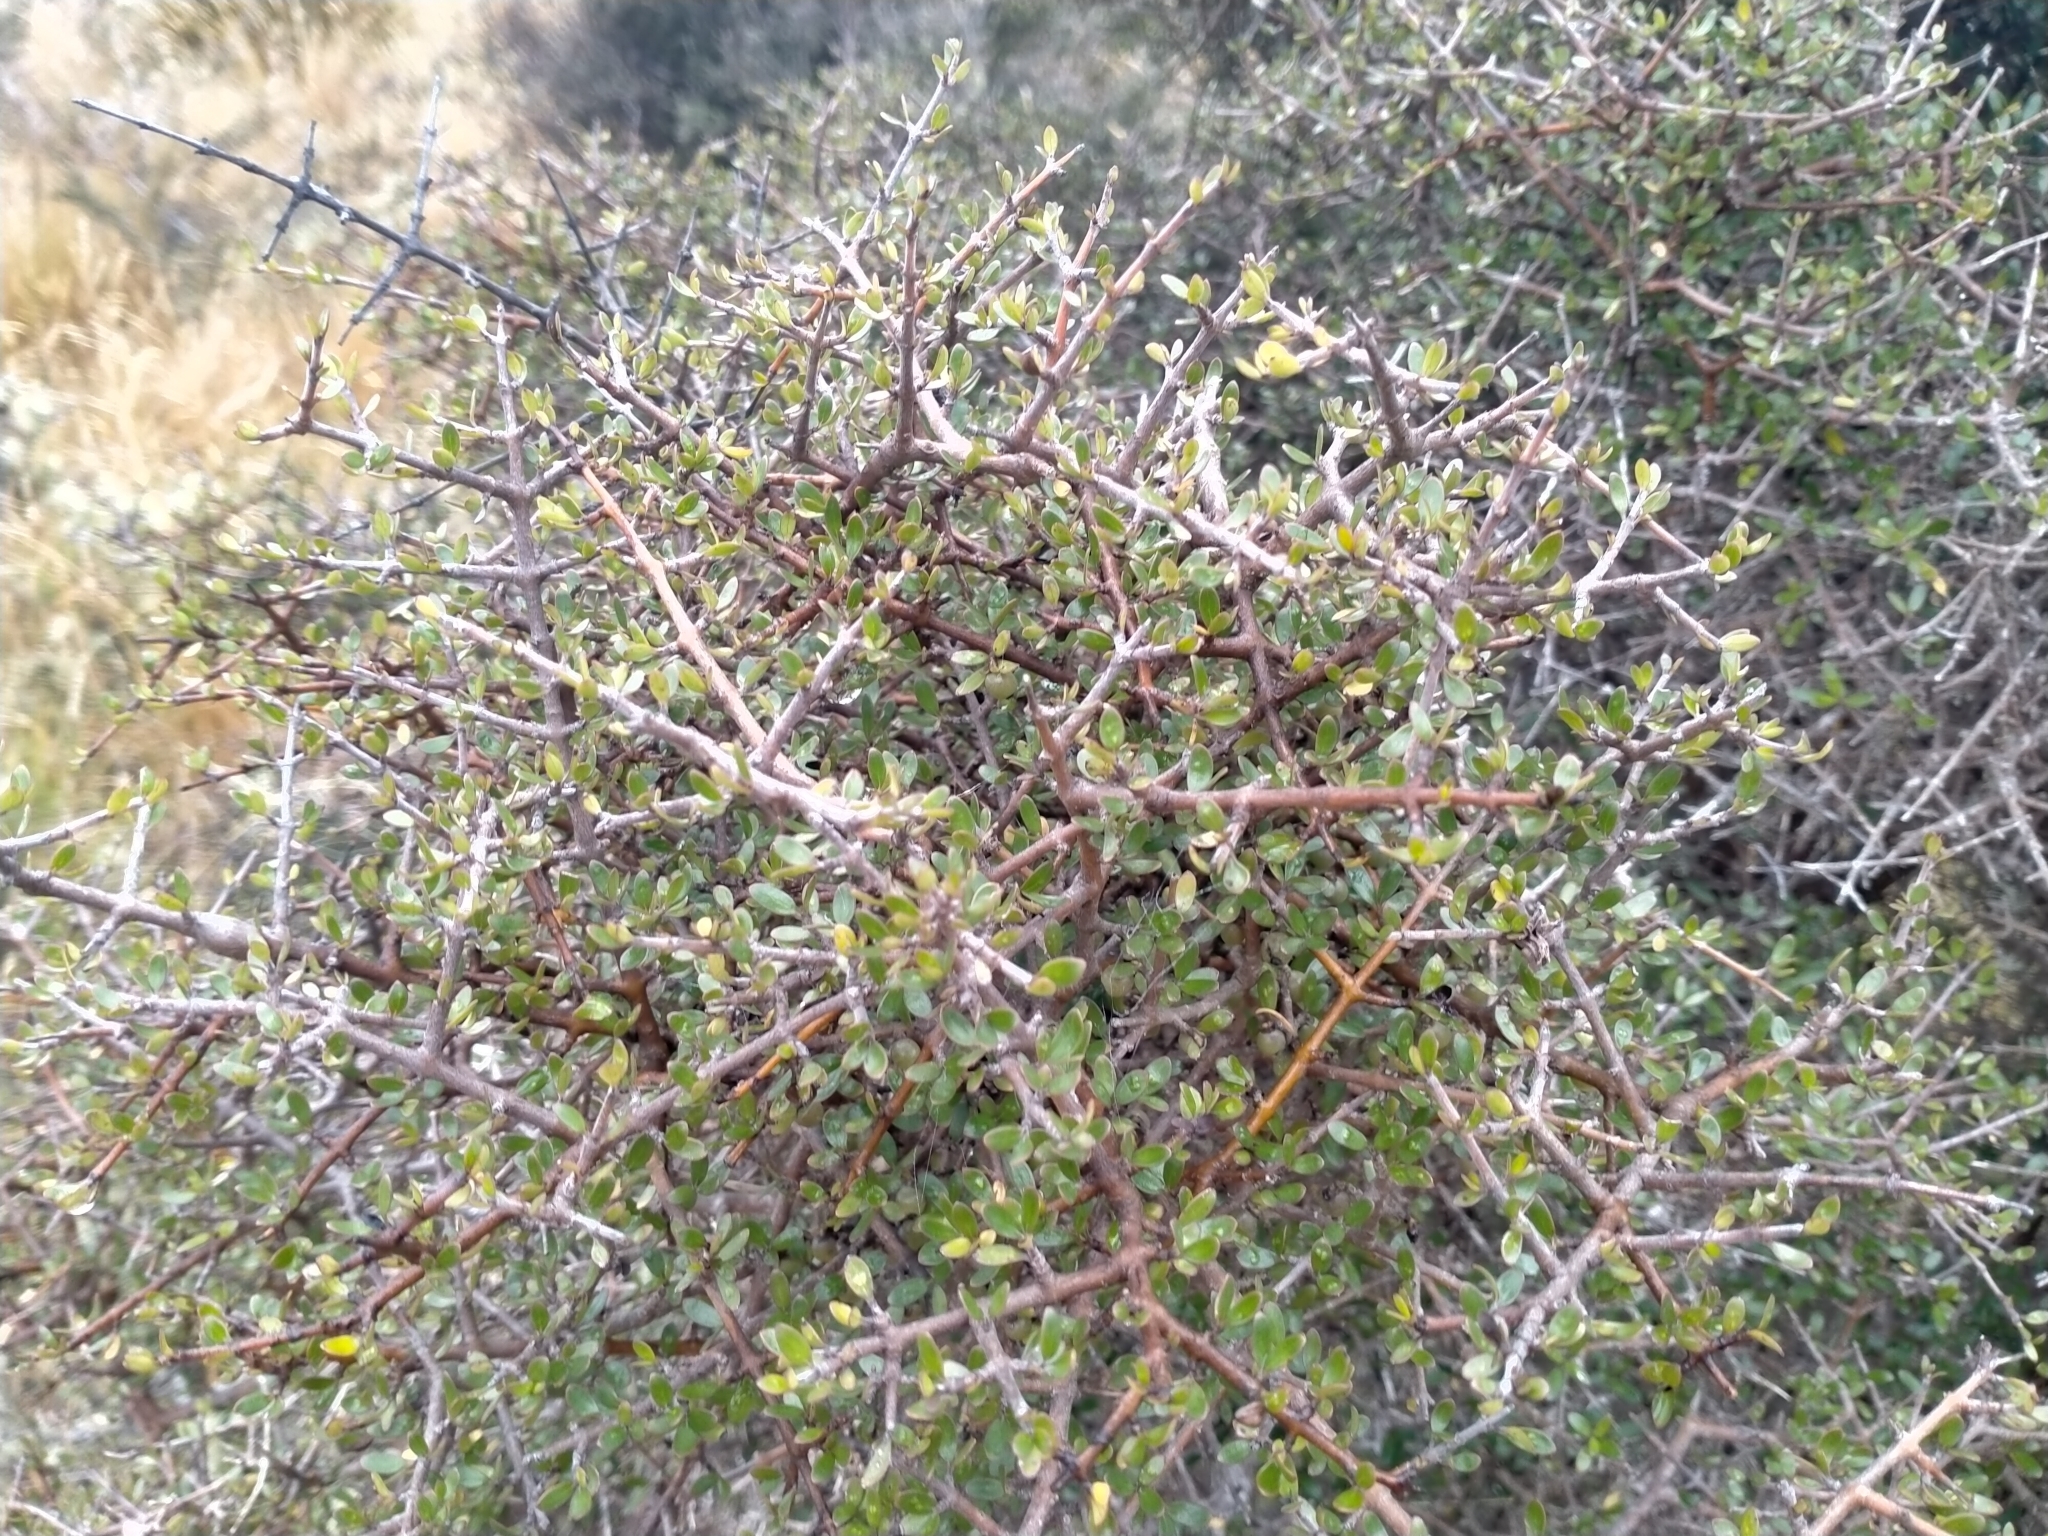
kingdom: Plantae
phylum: Tracheophyta
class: Magnoliopsida
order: Gentianales
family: Rubiaceae
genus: Coprosma
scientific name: Coprosma propinqua
